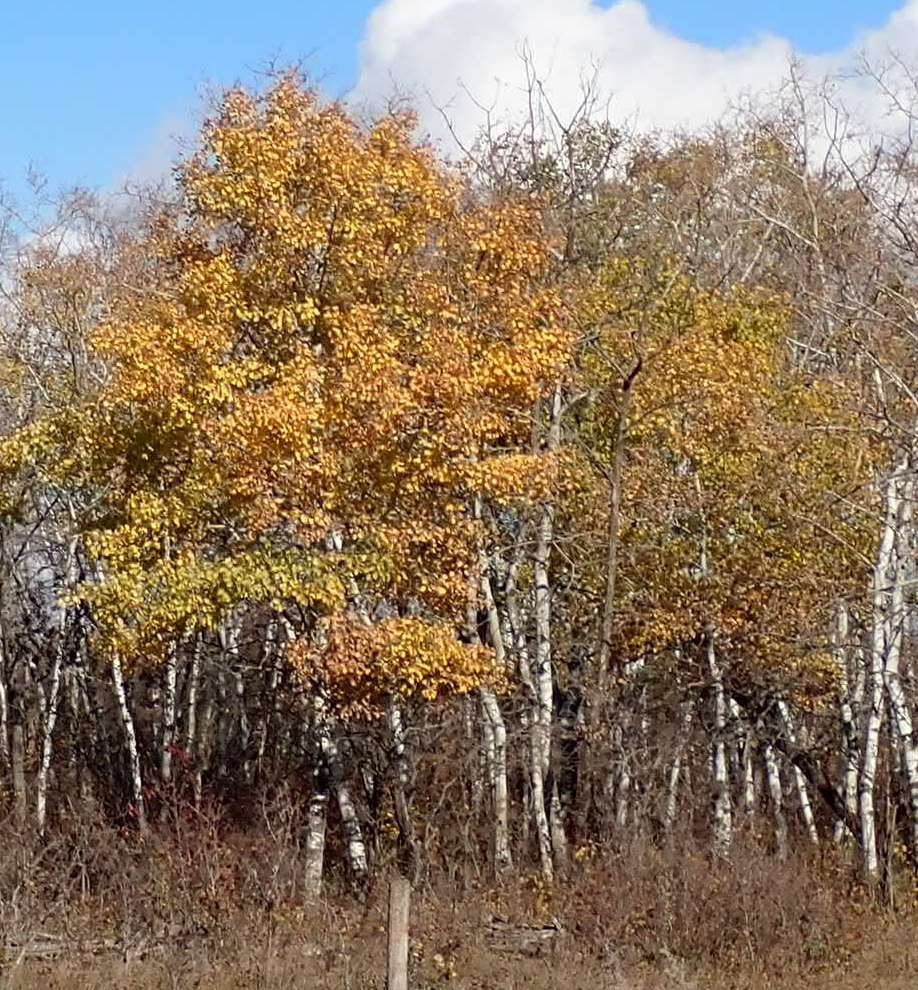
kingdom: Plantae
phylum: Tracheophyta
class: Magnoliopsida
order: Malpighiales
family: Salicaceae
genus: Populus
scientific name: Populus tremuloides
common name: Quaking aspen
